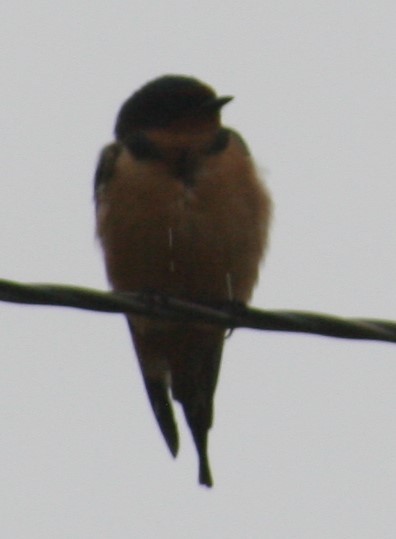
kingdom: Animalia
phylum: Chordata
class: Aves
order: Passeriformes
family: Hirundinidae
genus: Hirundo
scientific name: Hirundo rustica
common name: Barn swallow
